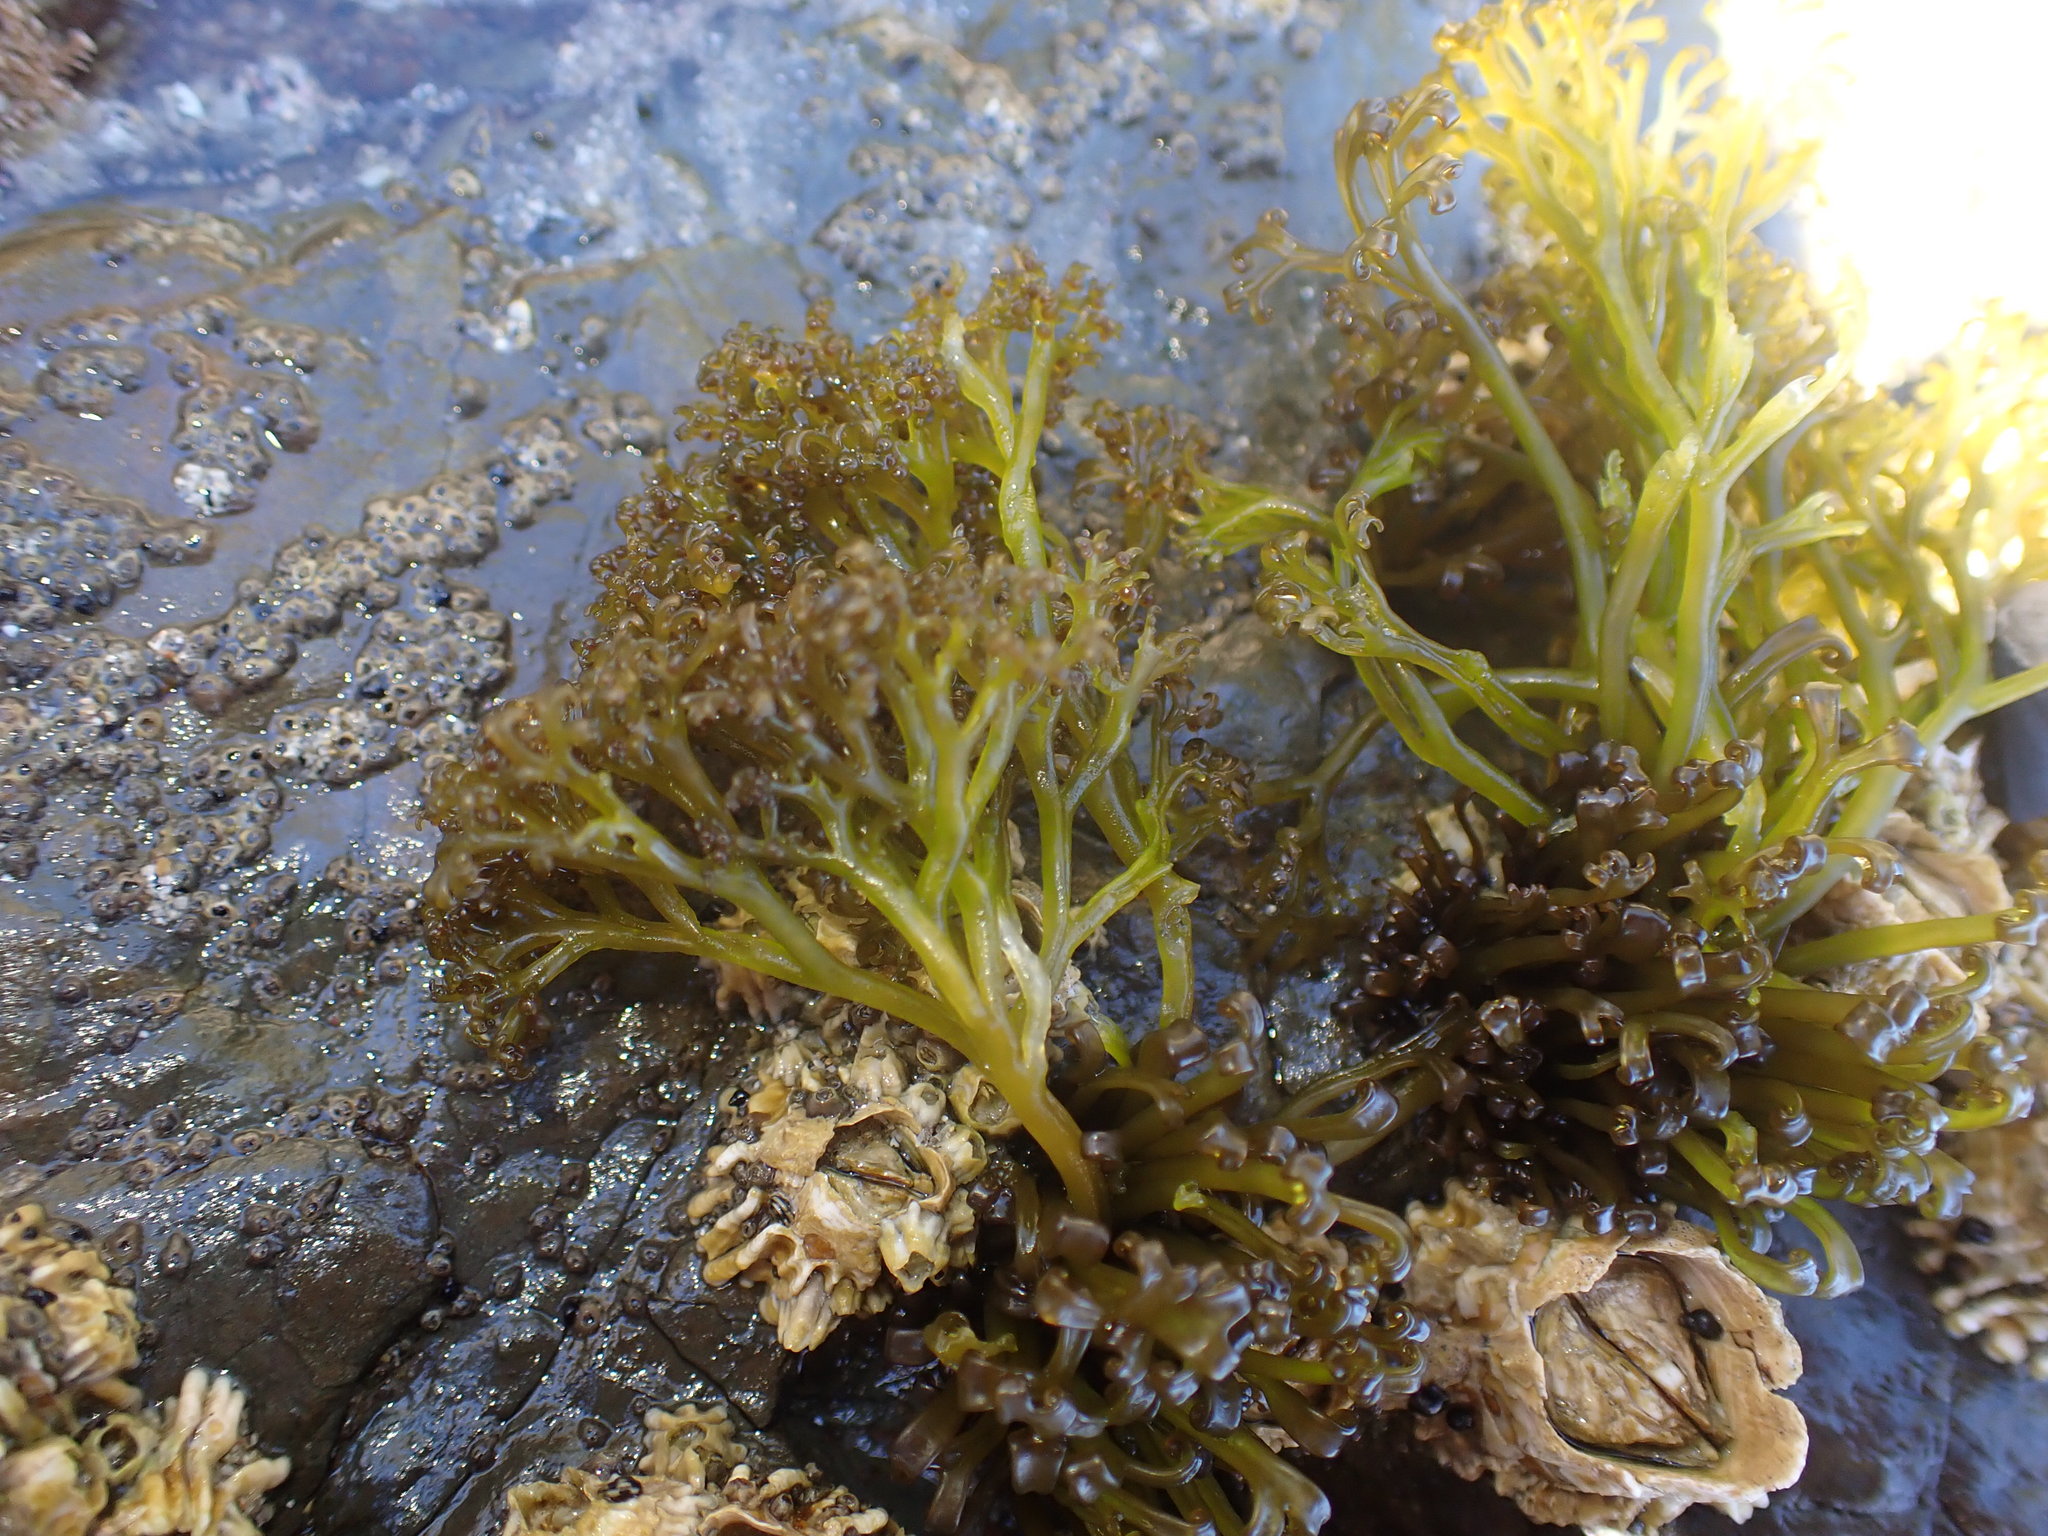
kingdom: Plantae
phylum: Rhodophyta
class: Florideophyceae
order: Gigartinales
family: Gigartinaceae
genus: Psilophycus
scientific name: Psilophycus alveatus
